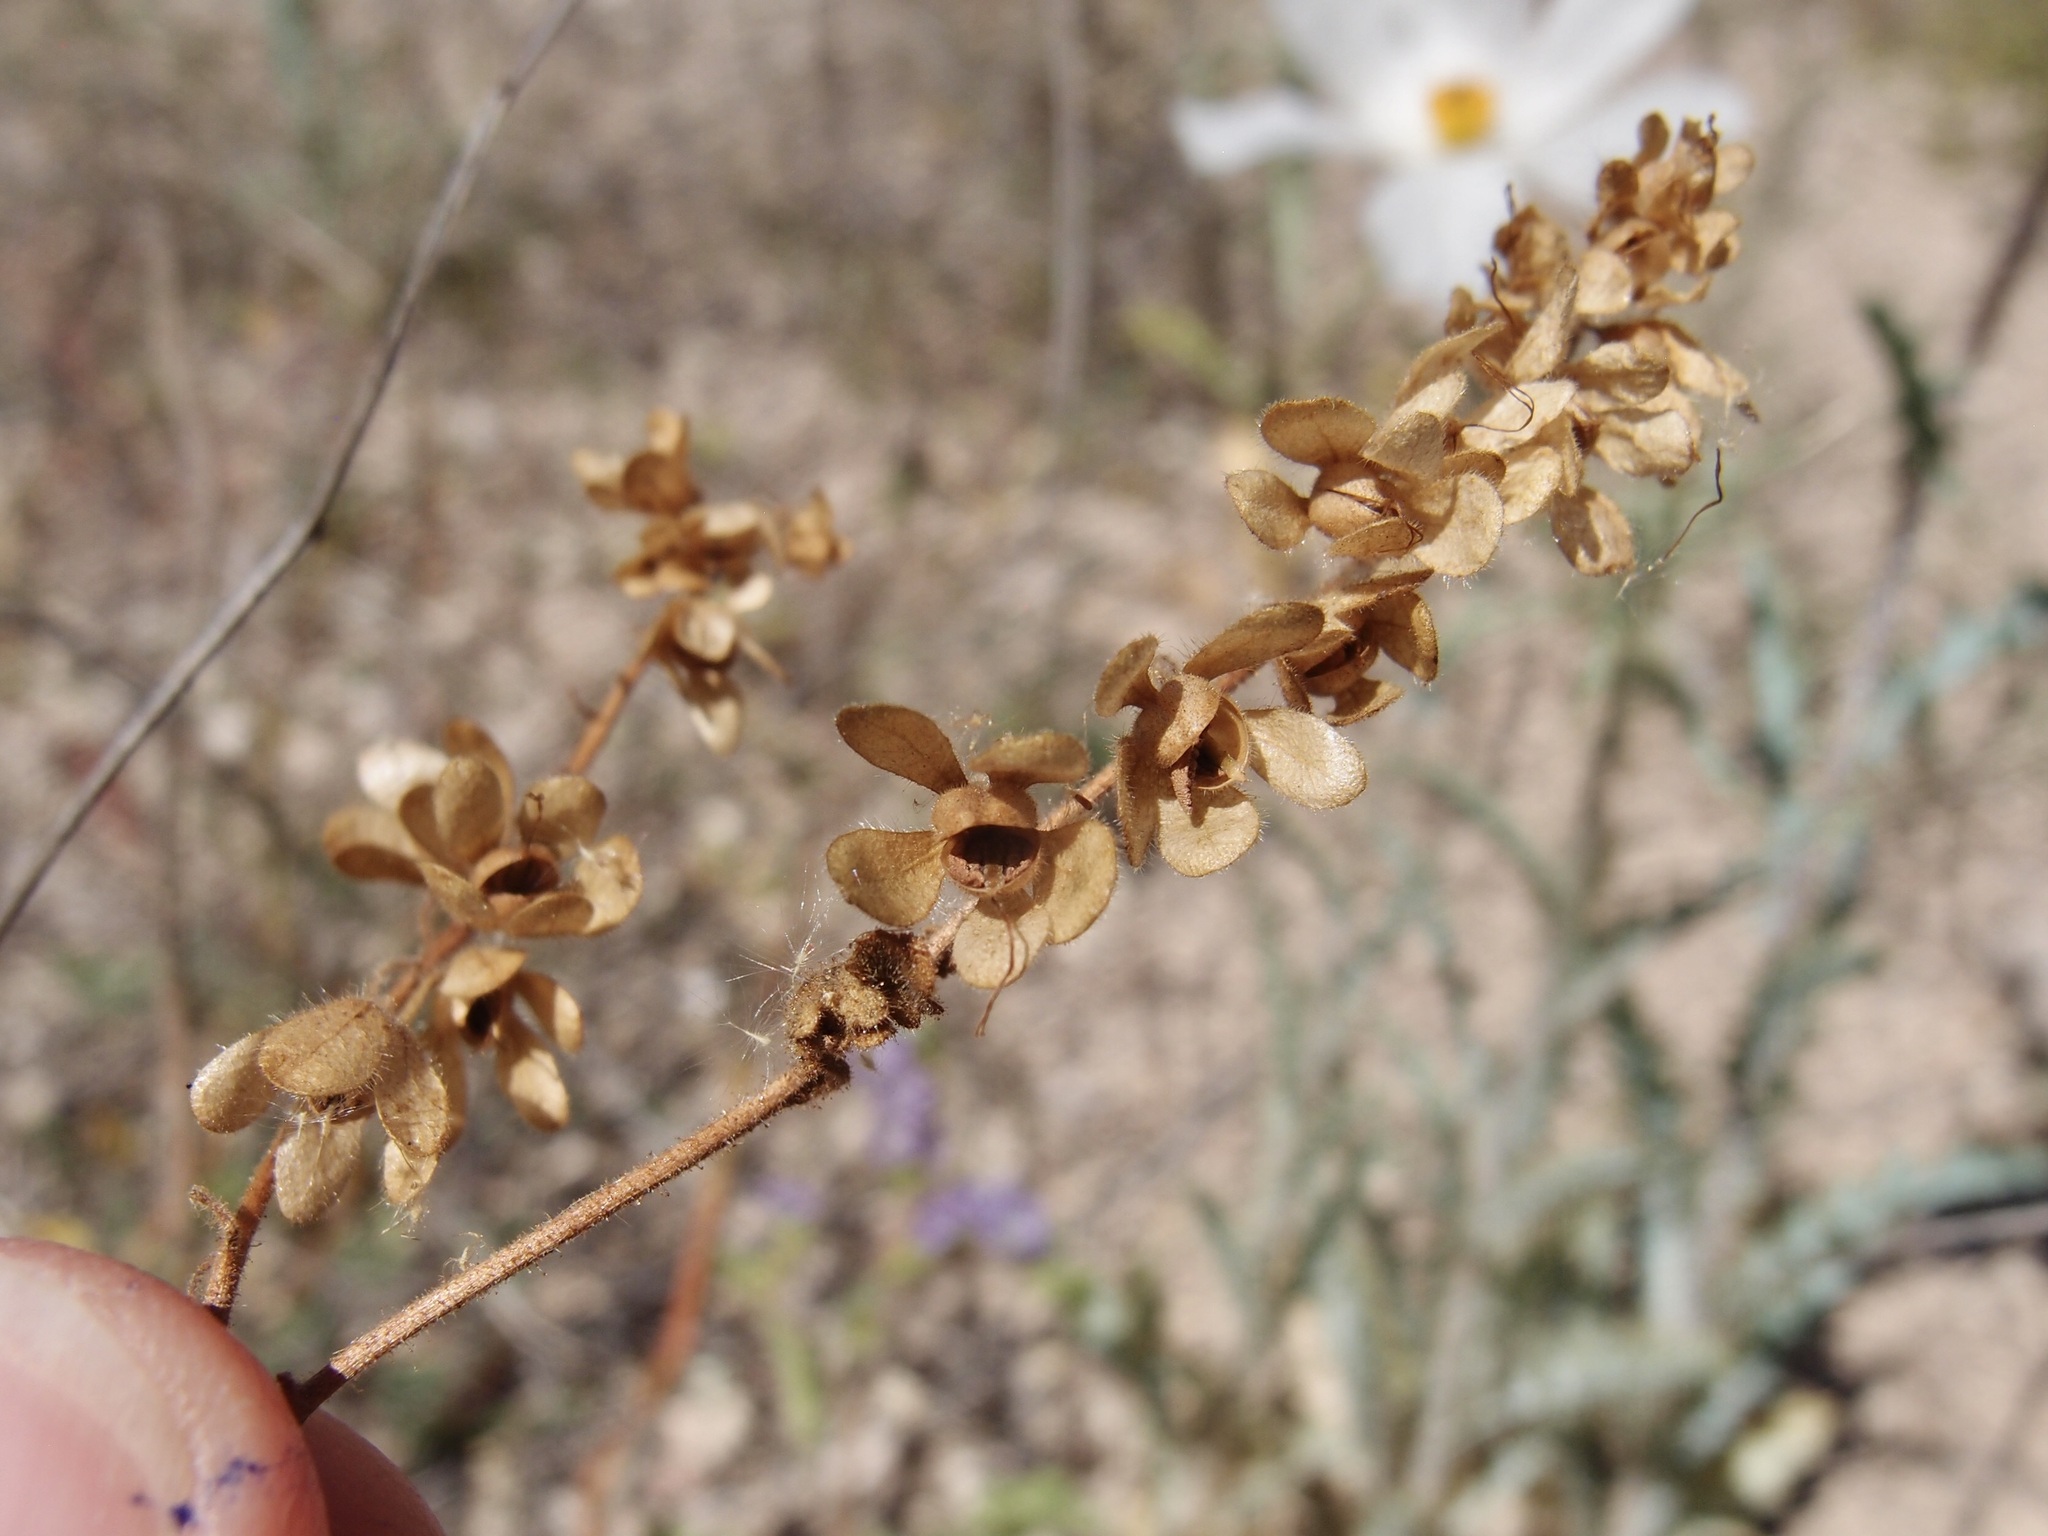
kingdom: Plantae
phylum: Tracheophyta
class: Magnoliopsida
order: Boraginales
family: Hydrophyllaceae
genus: Phacelia
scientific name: Phacelia scariosa
